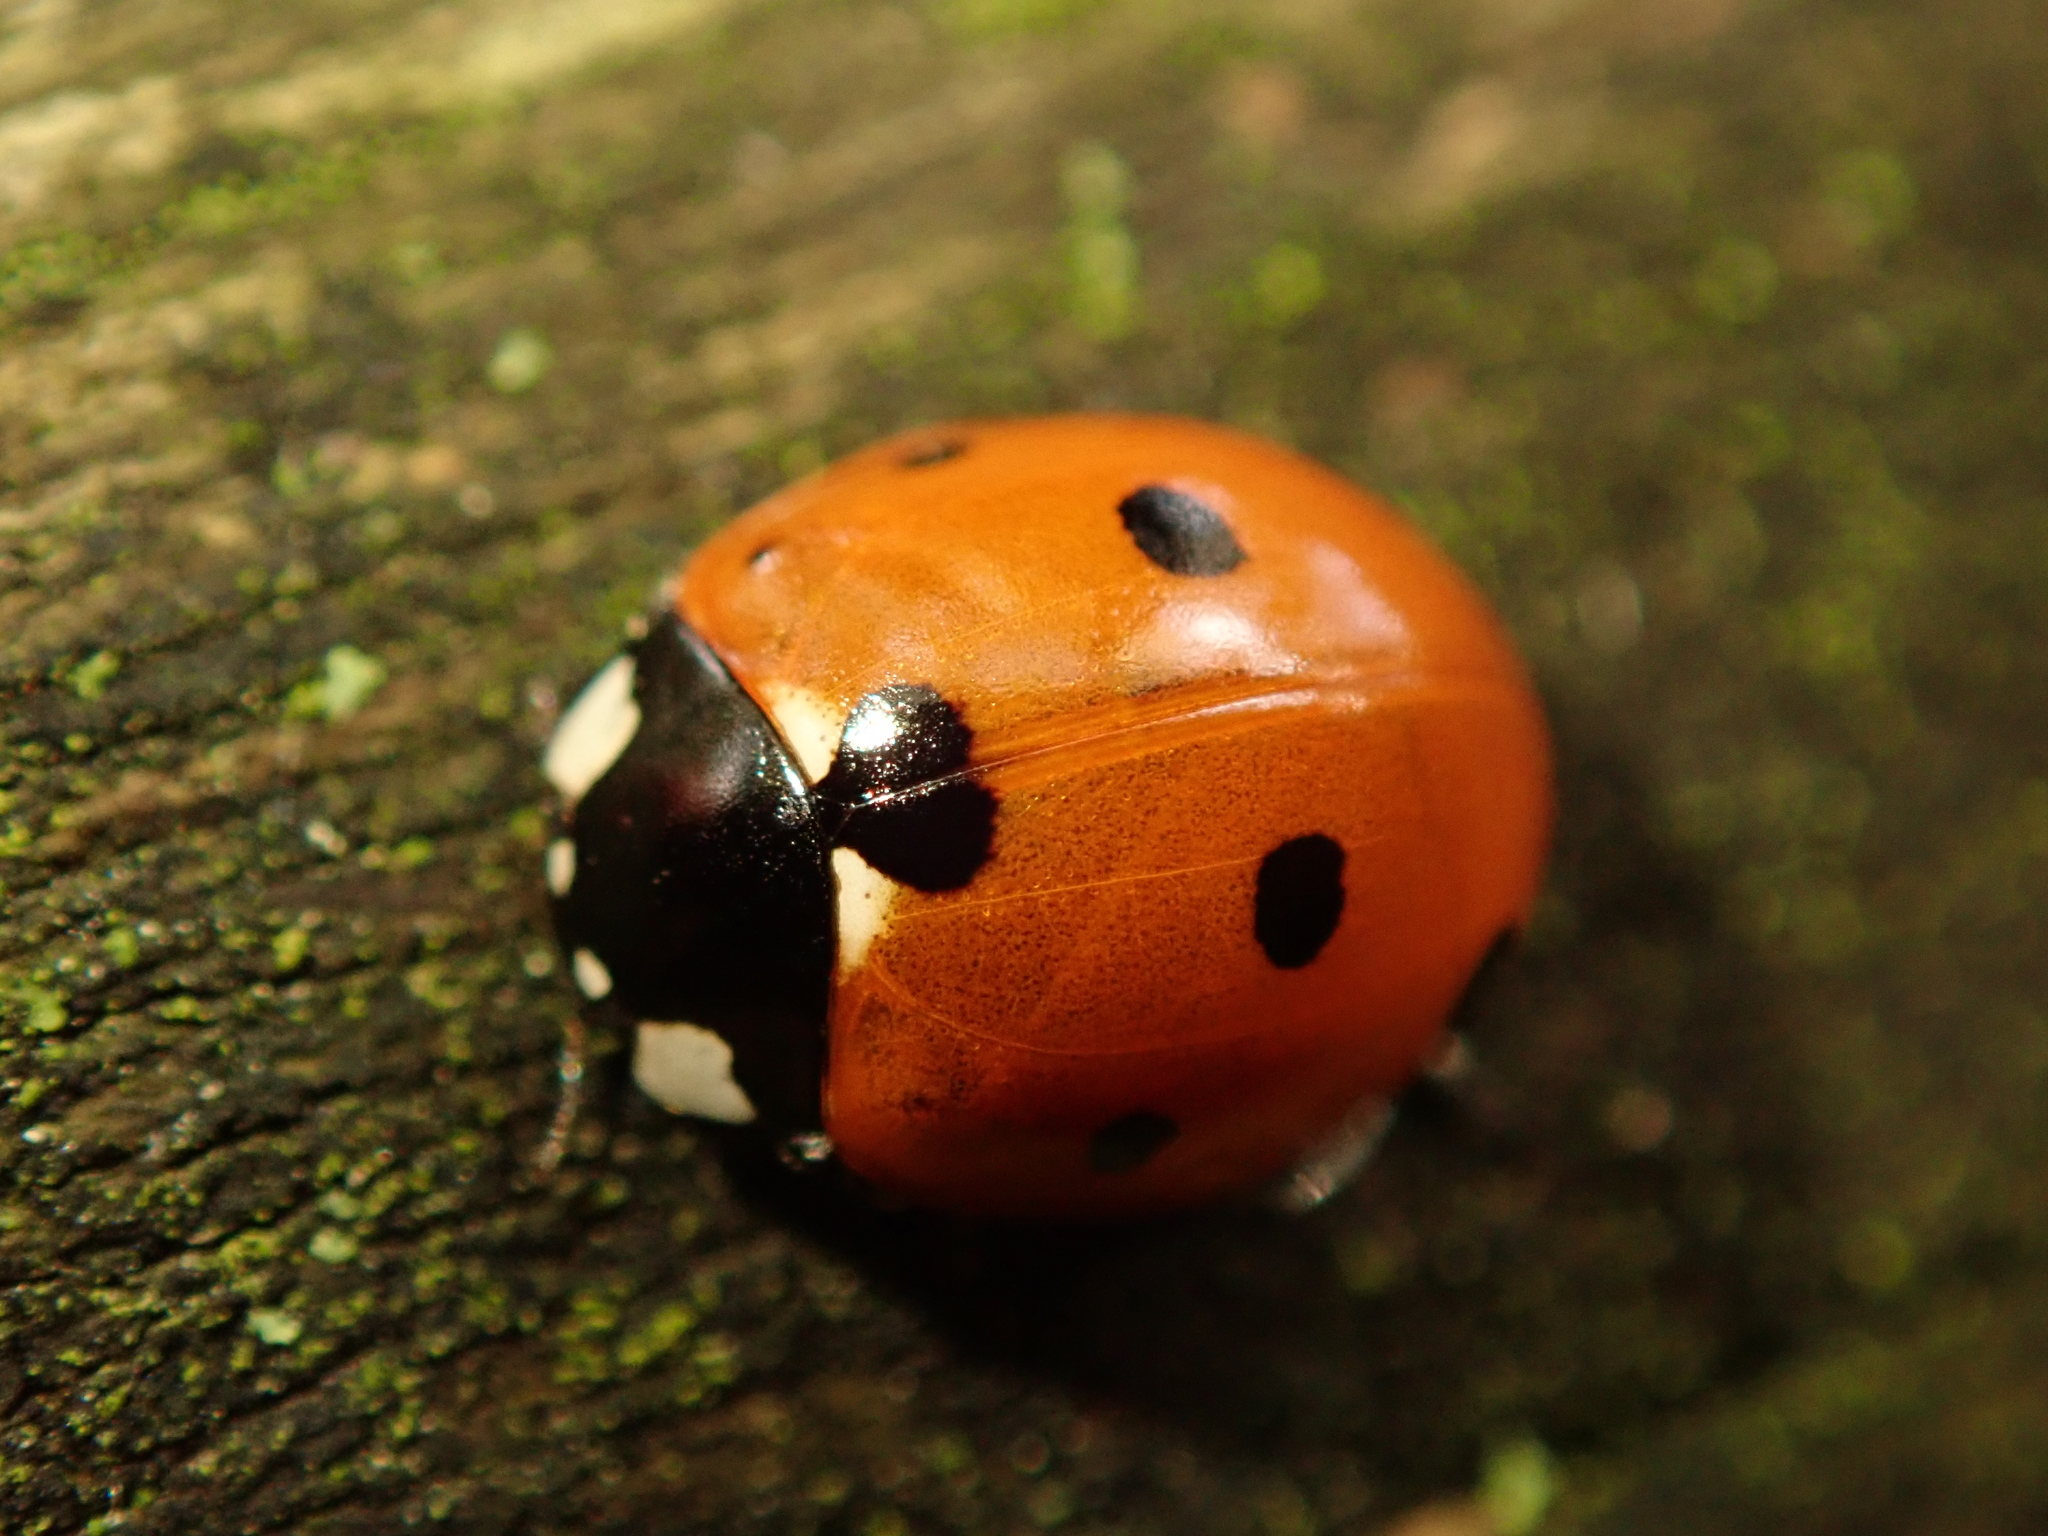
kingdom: Animalia
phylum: Arthropoda
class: Insecta
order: Coleoptera
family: Coccinellidae
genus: Coccinella
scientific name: Coccinella septempunctata
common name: Sevenspotted lady beetle
